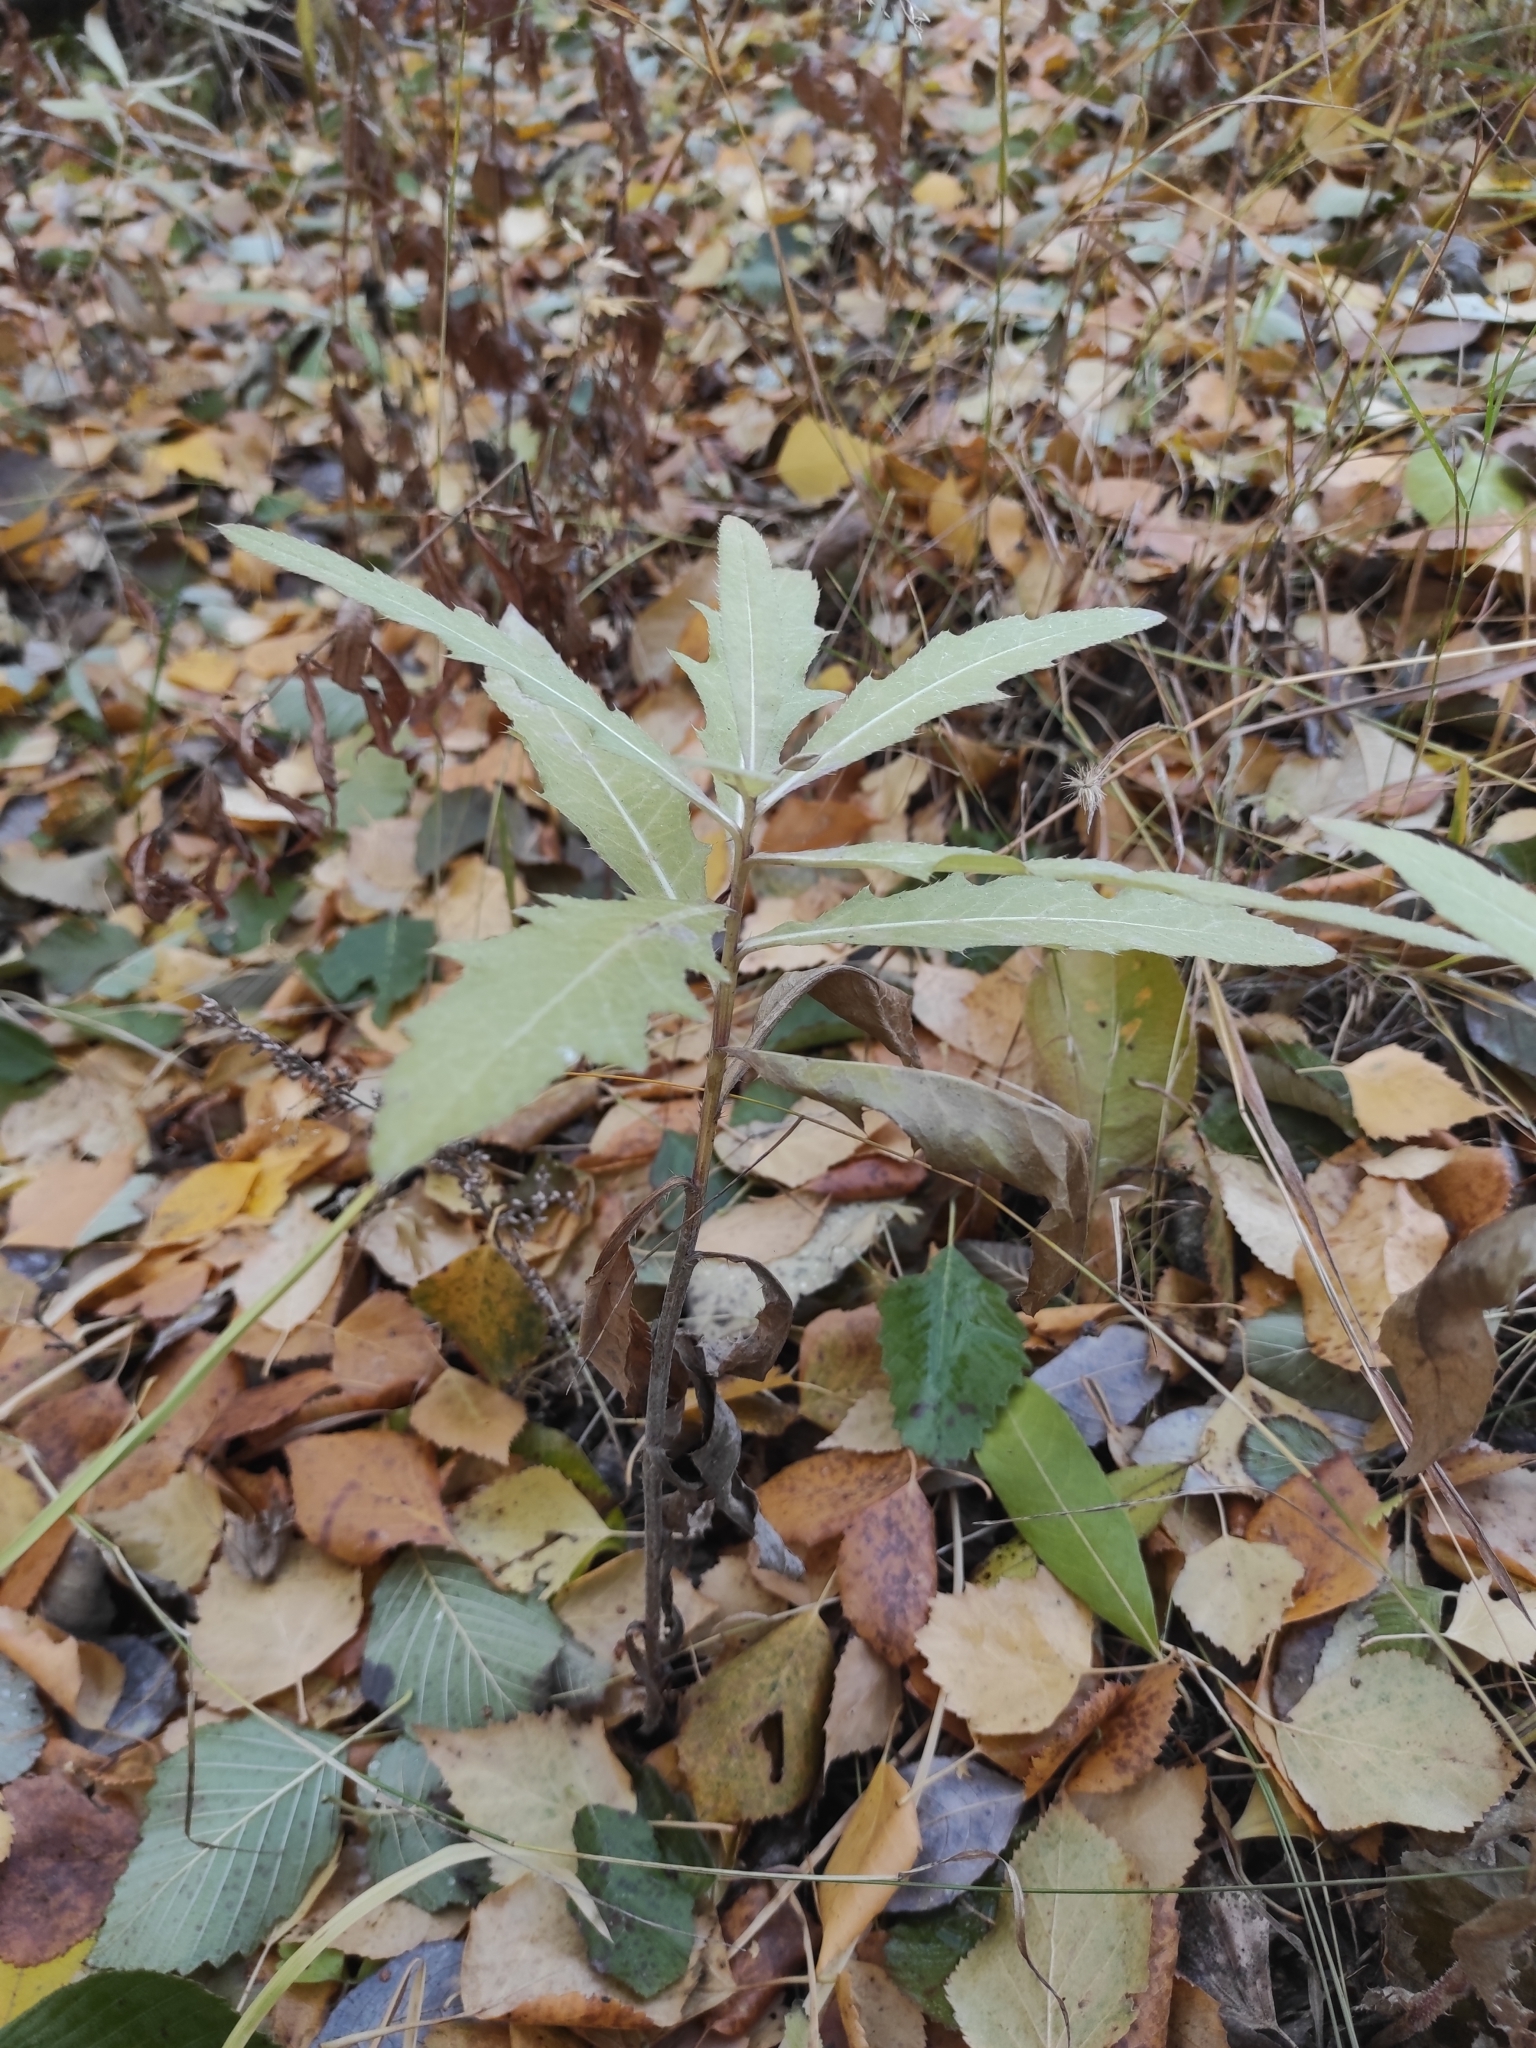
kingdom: Plantae
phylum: Tracheophyta
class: Magnoliopsida
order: Asterales
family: Asteraceae
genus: Cirsium
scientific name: Cirsium arvense
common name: Creeping thistle
